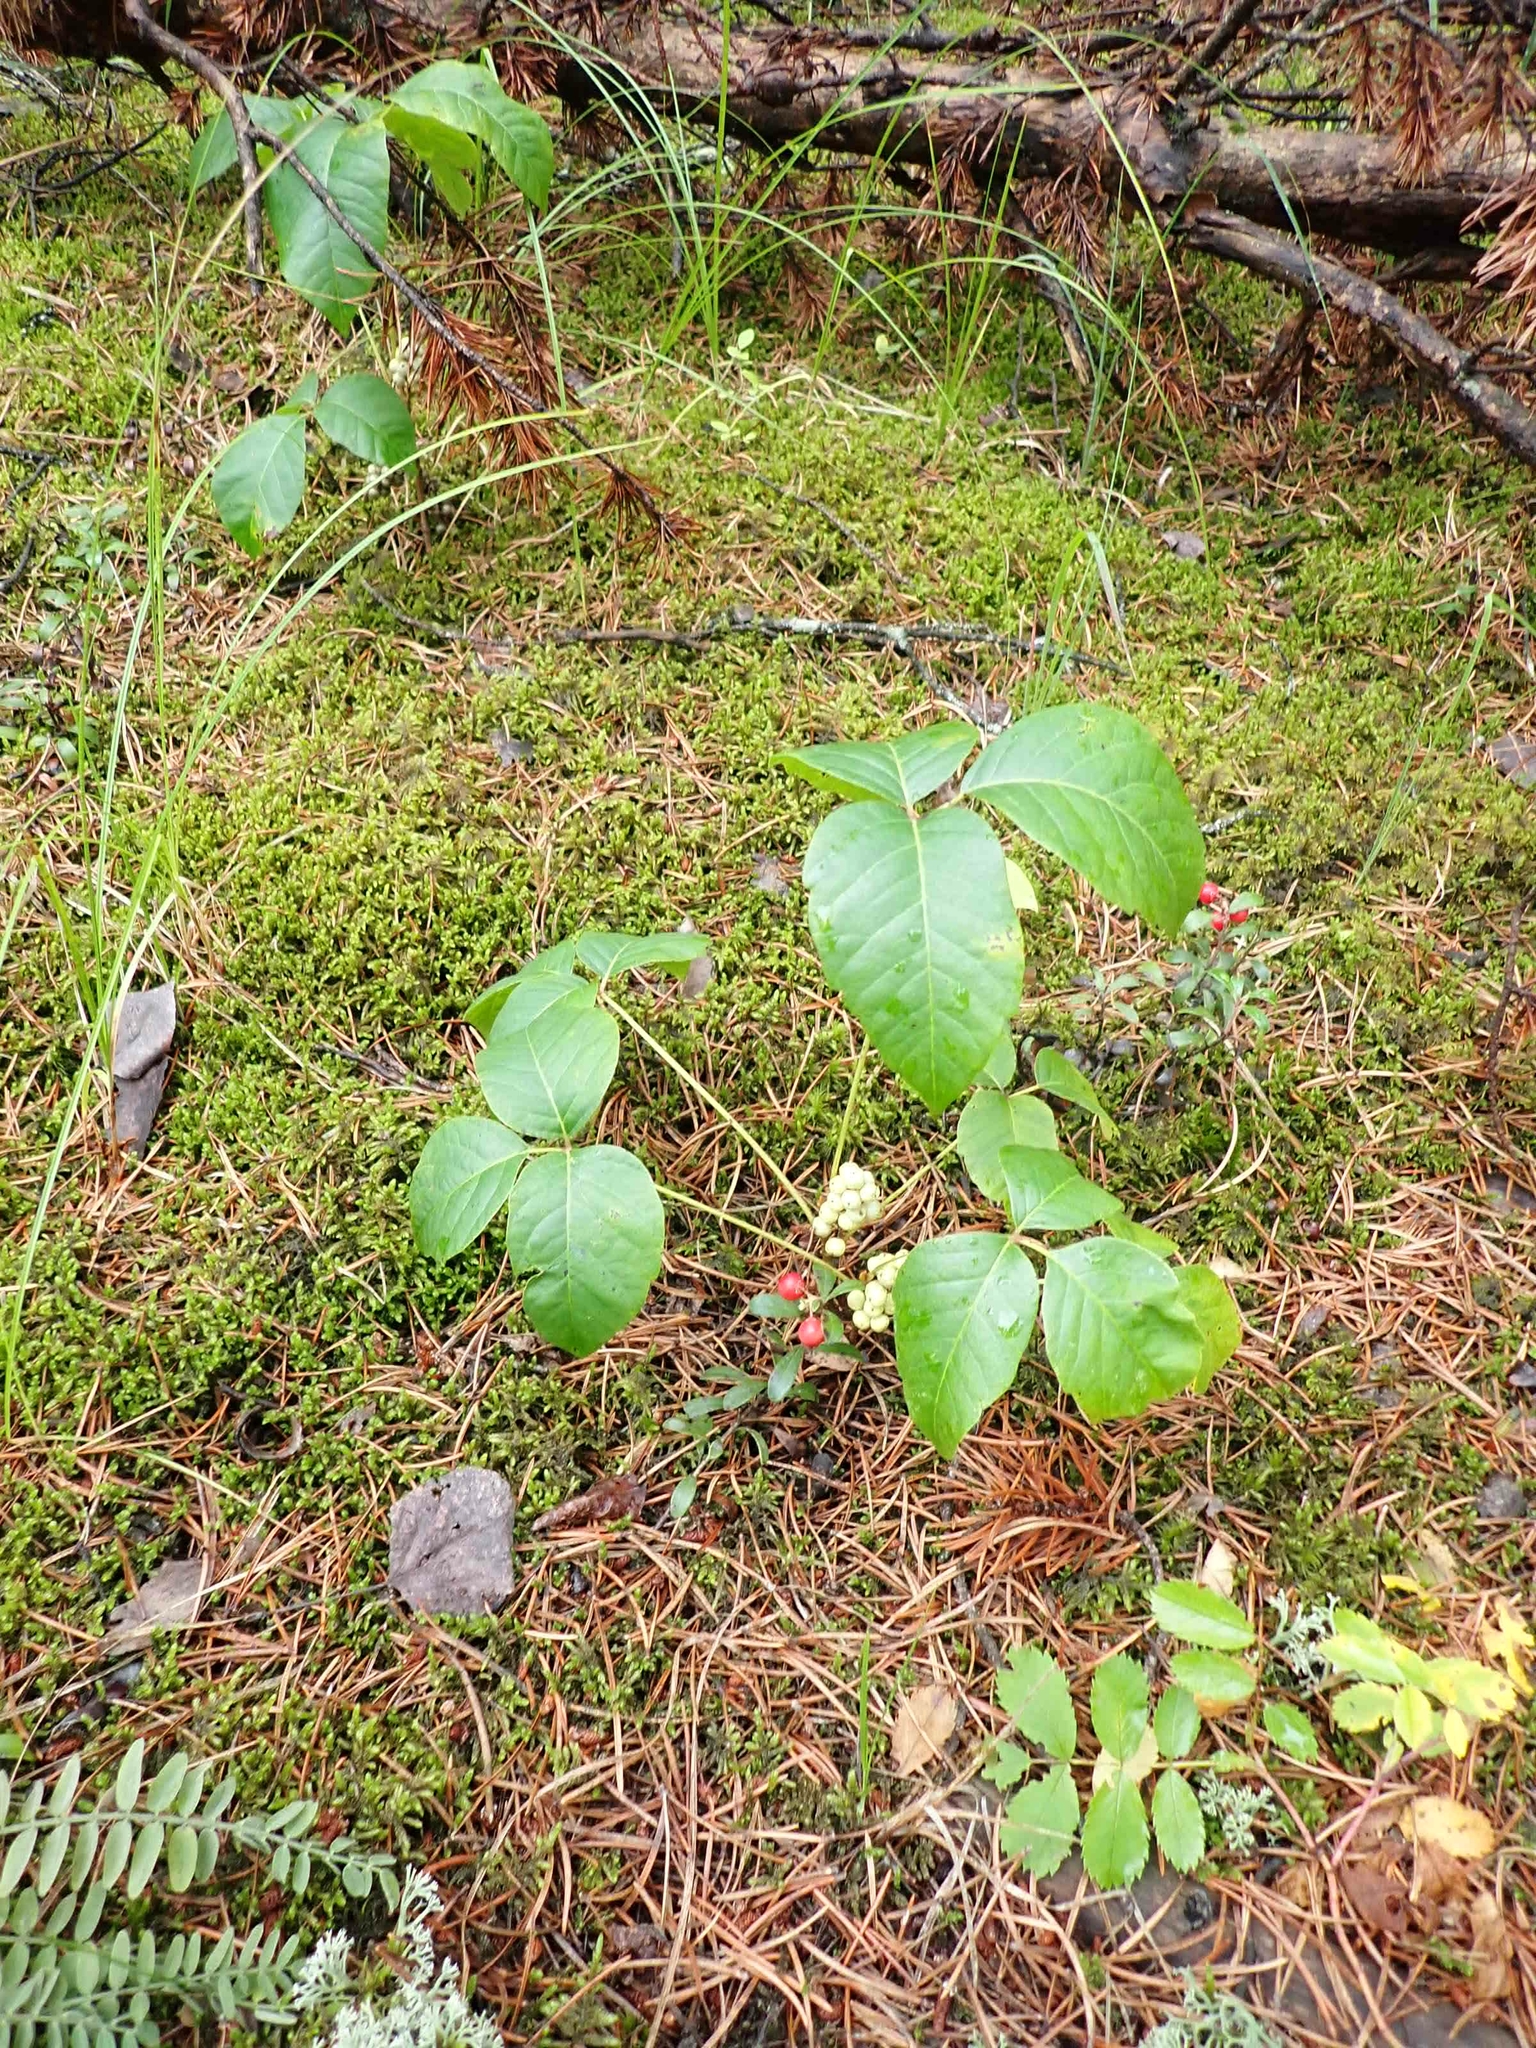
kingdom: Plantae
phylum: Tracheophyta
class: Magnoliopsida
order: Sapindales
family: Anacardiaceae
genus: Toxicodendron
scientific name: Toxicodendron rydbergii
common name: Rydberg's poison-ivy
